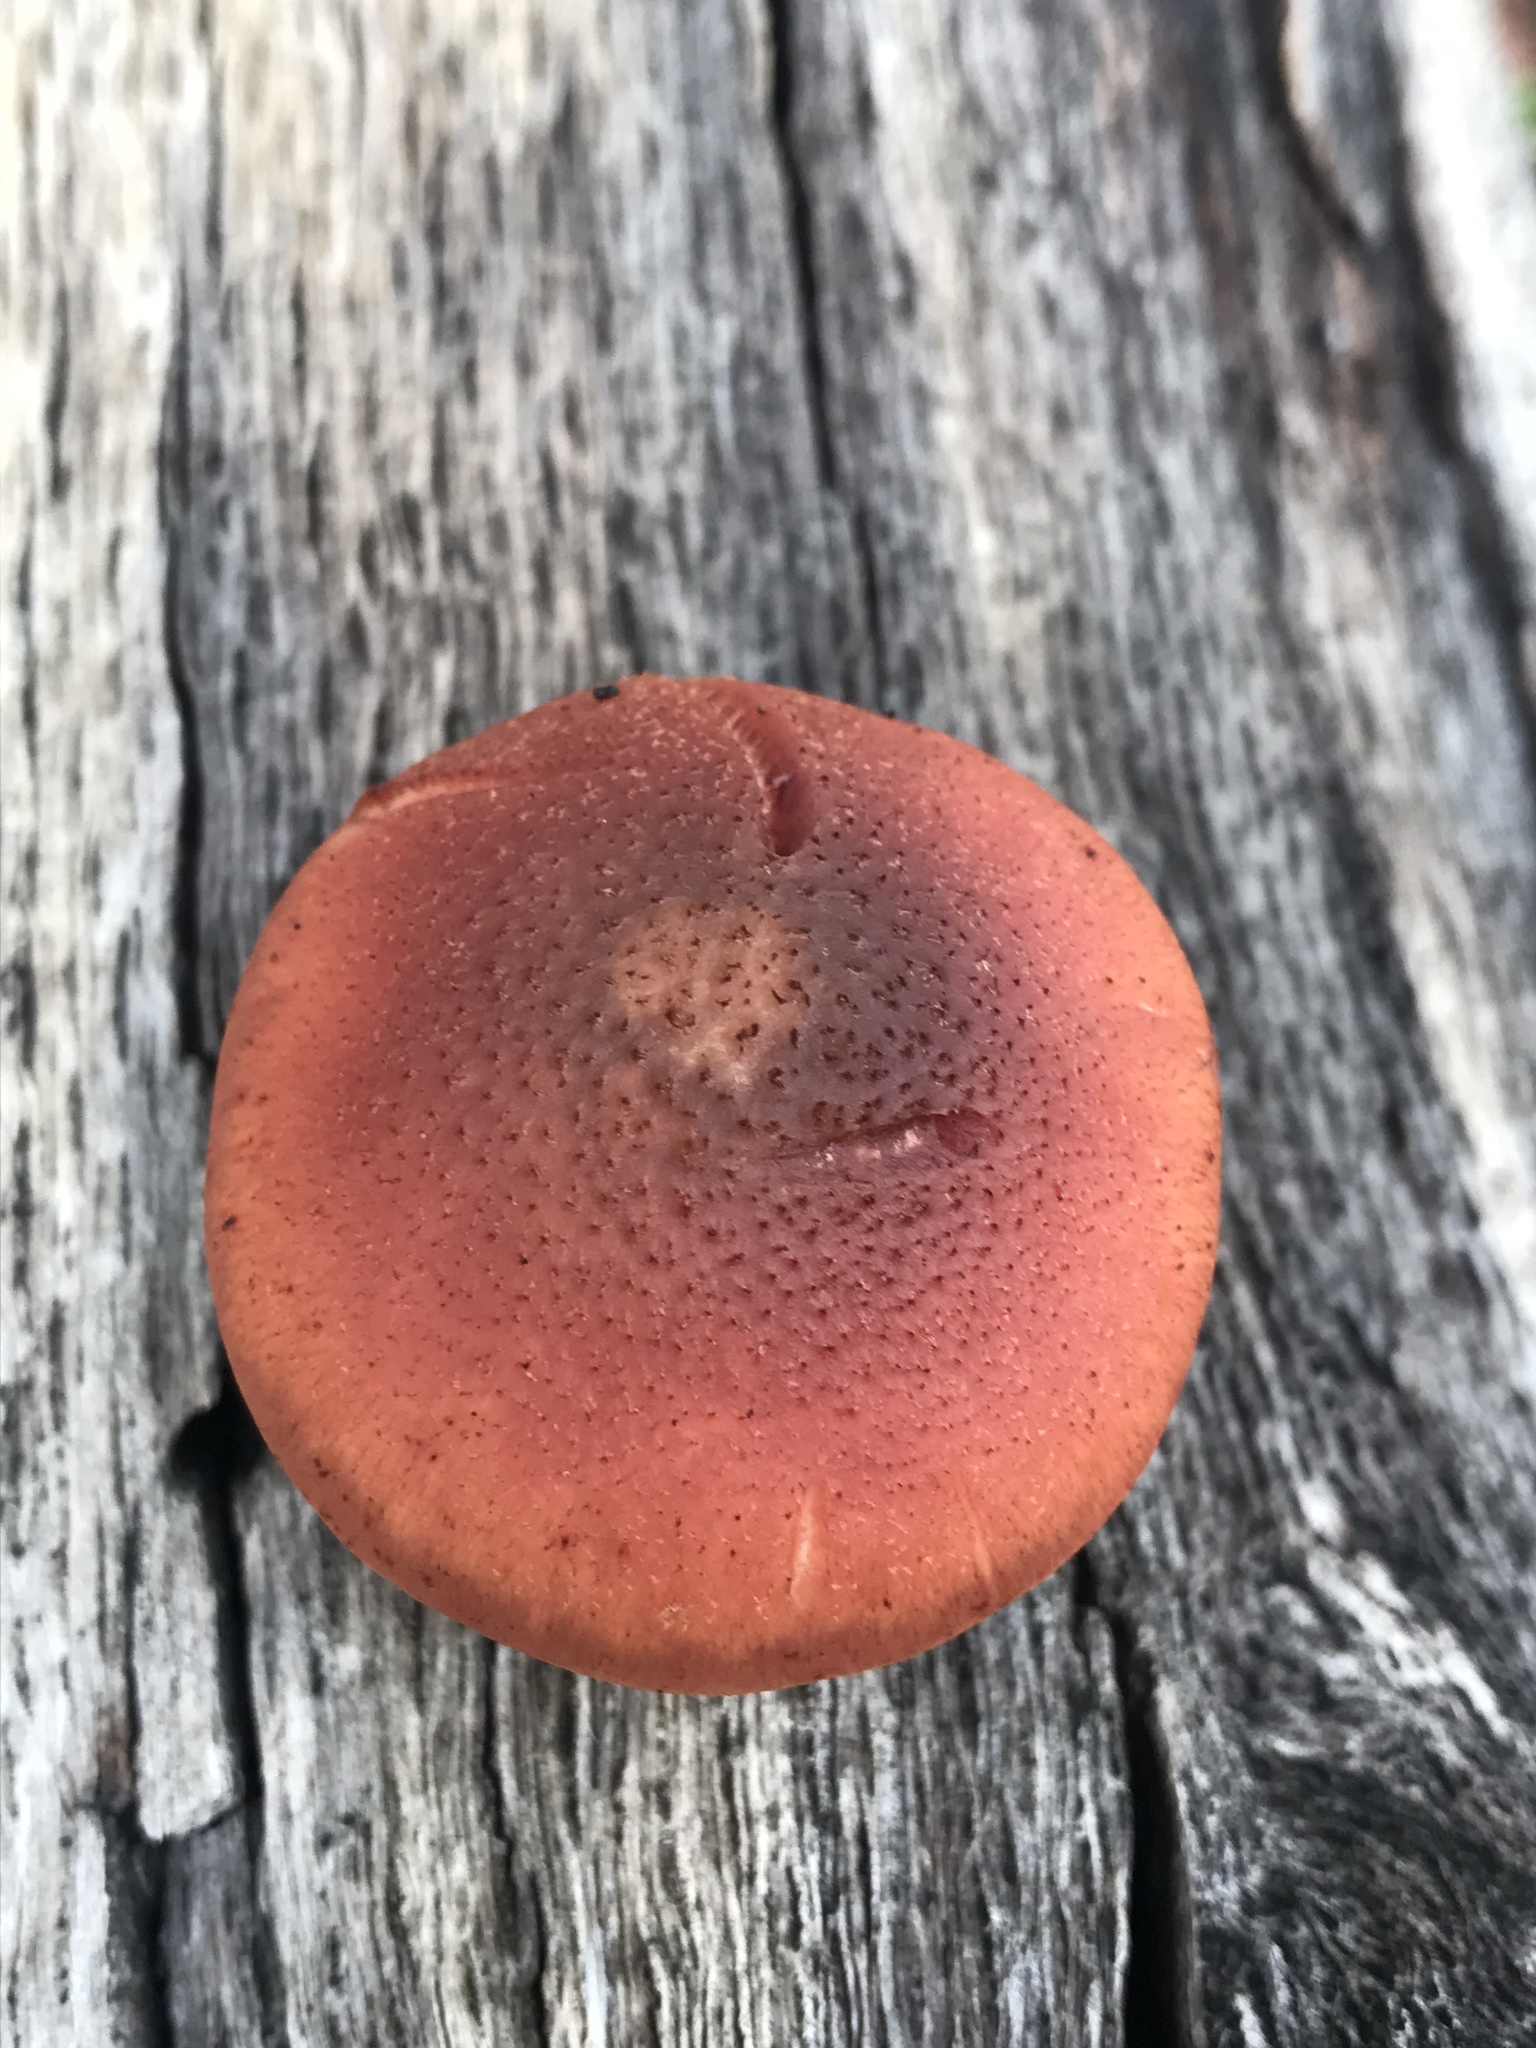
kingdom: Fungi
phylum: Basidiomycota
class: Agaricomycetes
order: Agaricales
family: Hymenogastraceae
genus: Gymnopilus
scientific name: Gymnopilus thiersii
